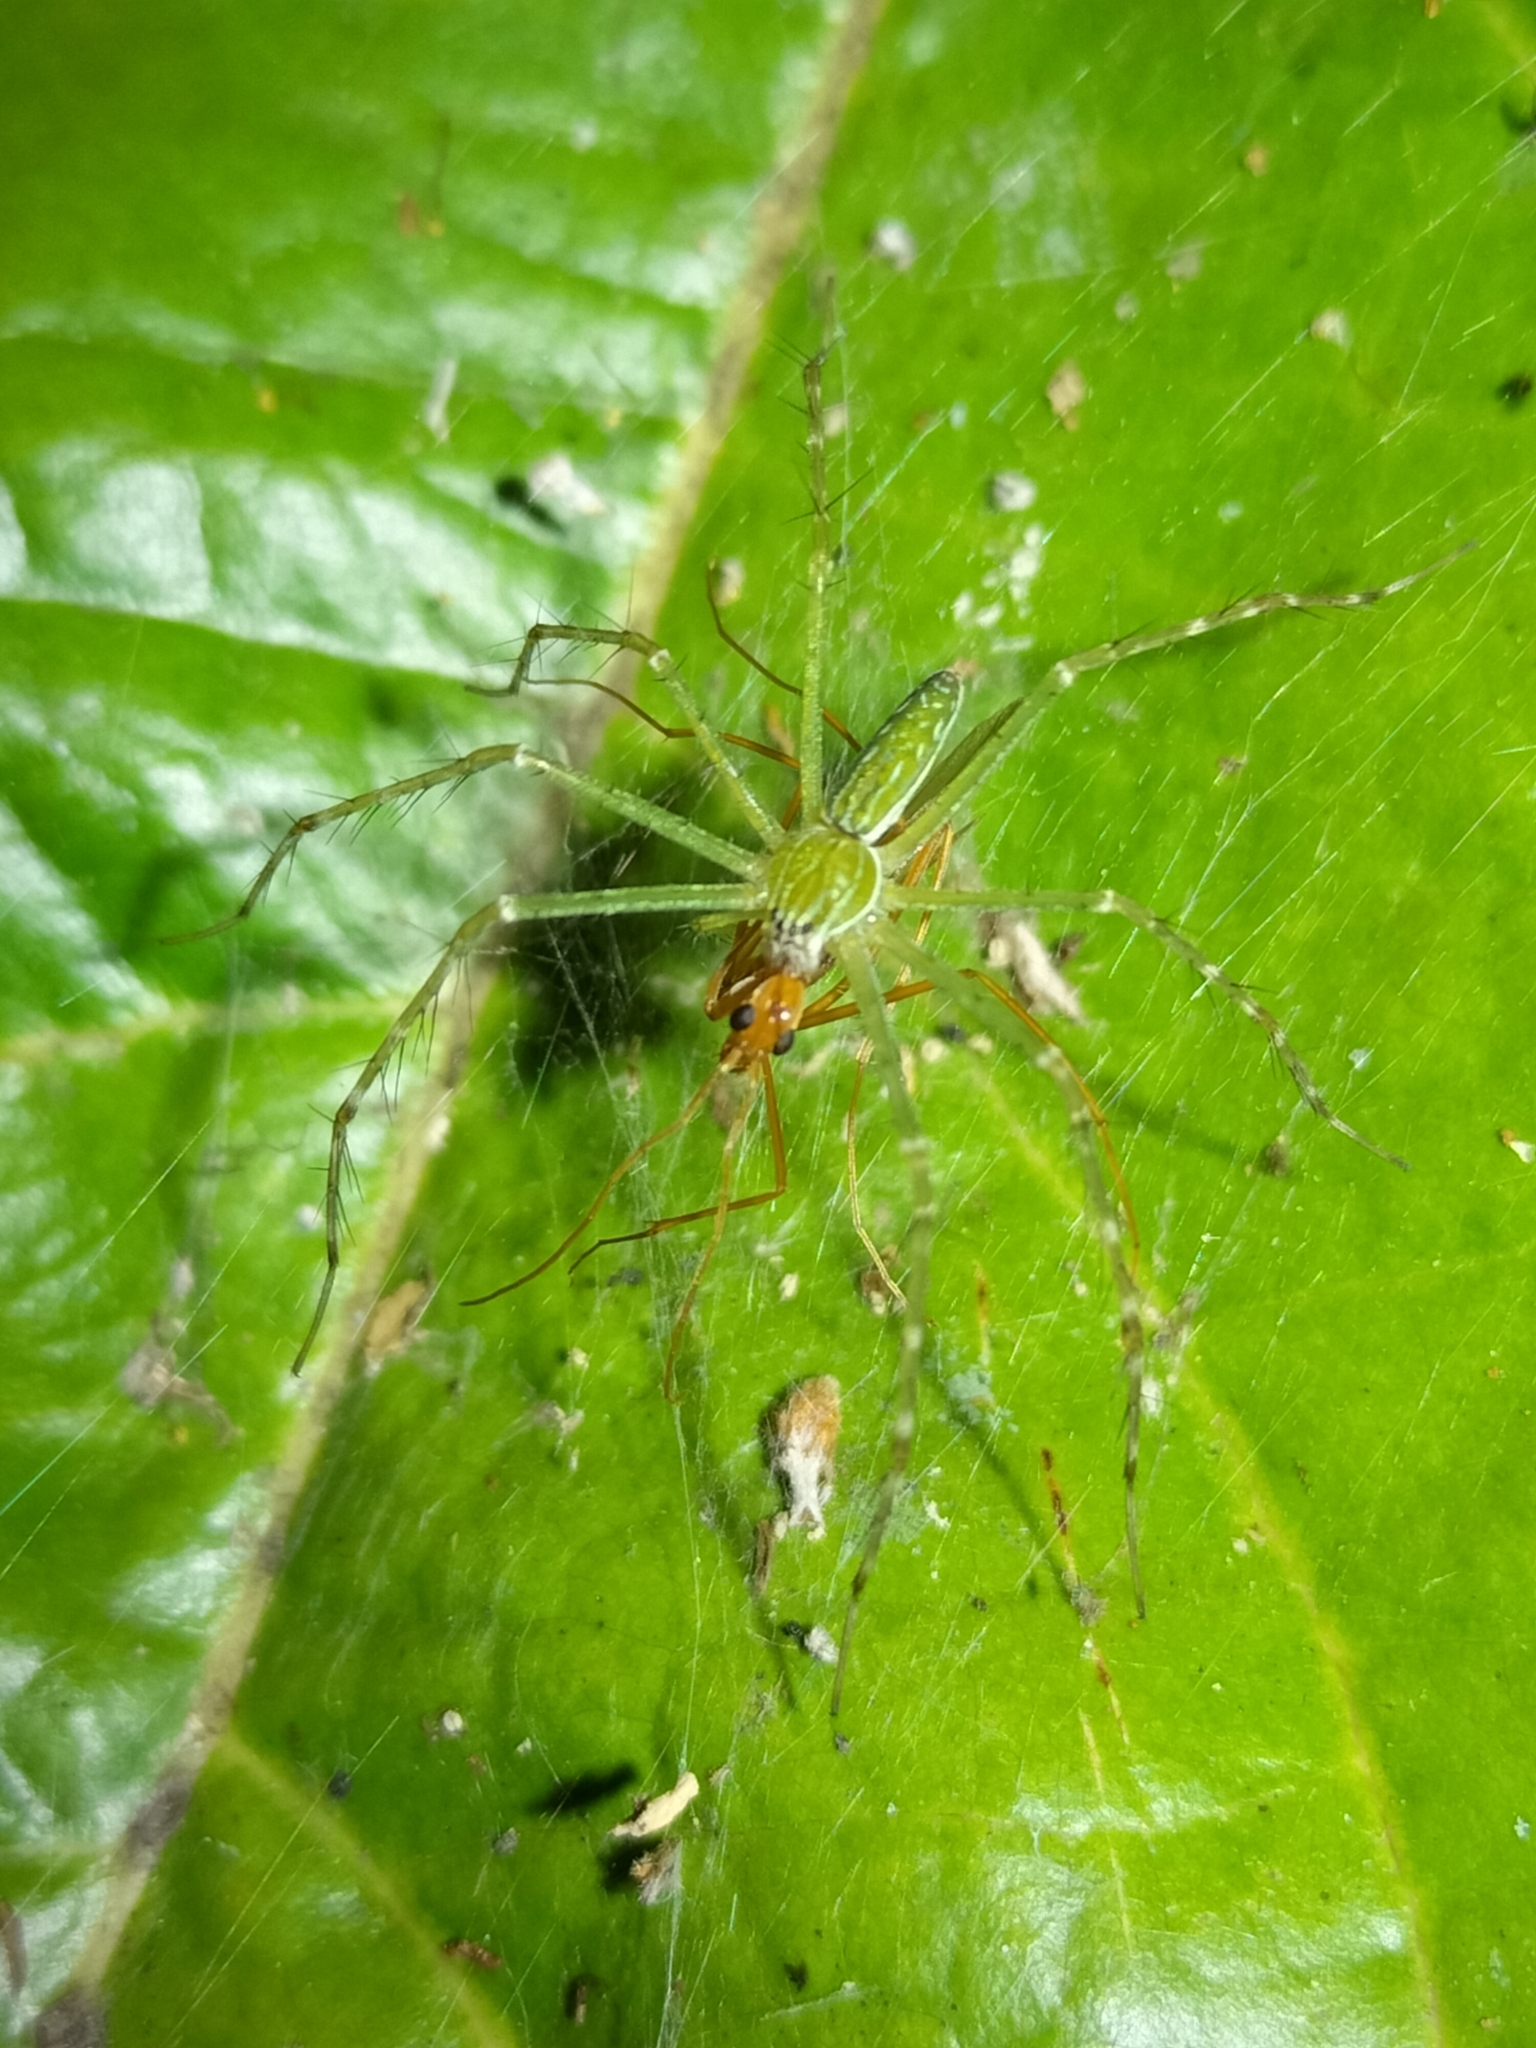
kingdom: Animalia
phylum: Arthropoda
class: Arachnida
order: Araneae
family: Pisauridae
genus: Hygropoda
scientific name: Hygropoda lineata
